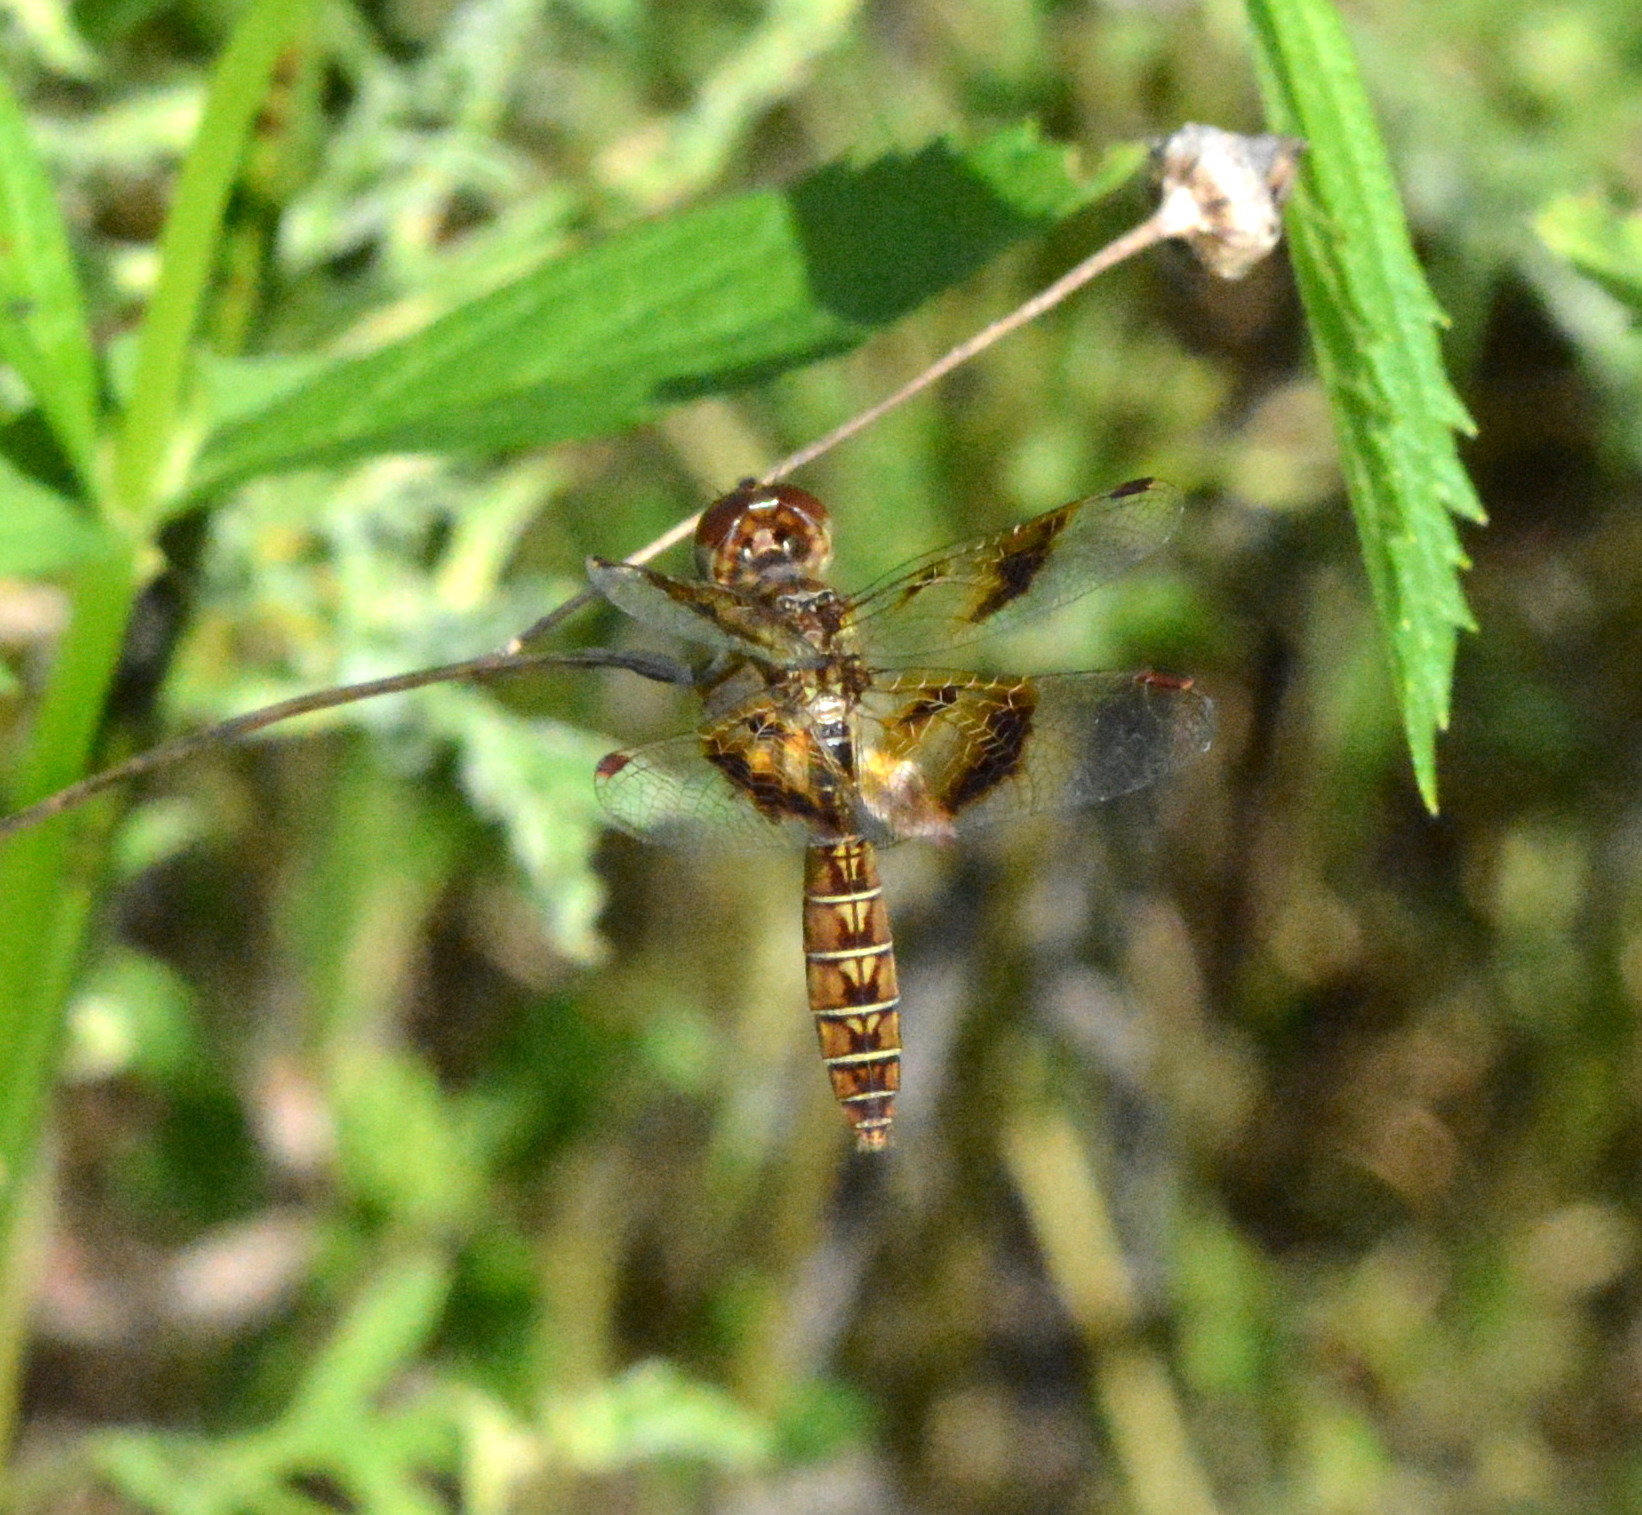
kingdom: Animalia
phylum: Arthropoda
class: Insecta
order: Odonata
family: Libellulidae
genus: Perithemis
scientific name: Perithemis tenera
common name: Eastern amberwing
